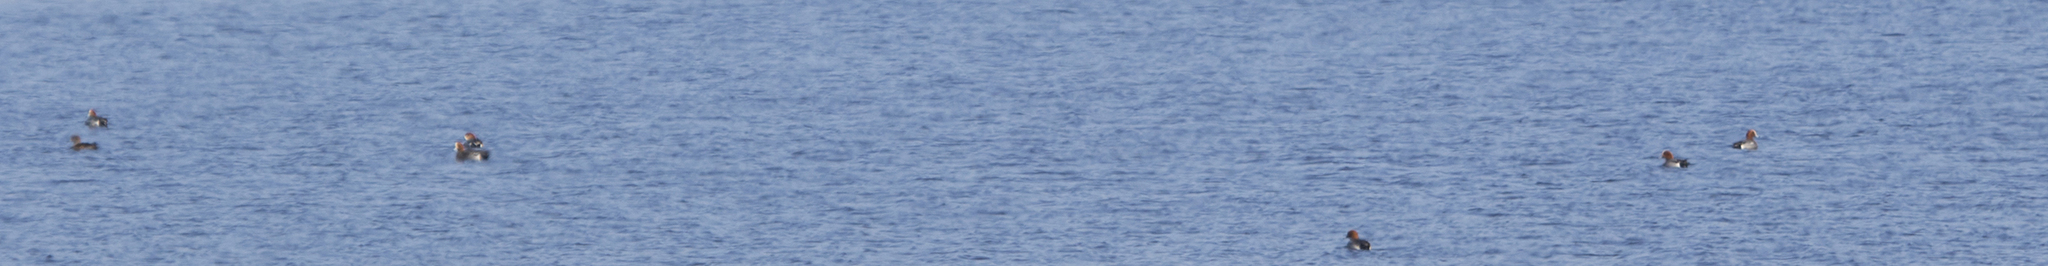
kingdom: Animalia
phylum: Chordata
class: Aves
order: Anseriformes
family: Anatidae
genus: Mareca
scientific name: Mareca penelope
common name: Eurasian wigeon
